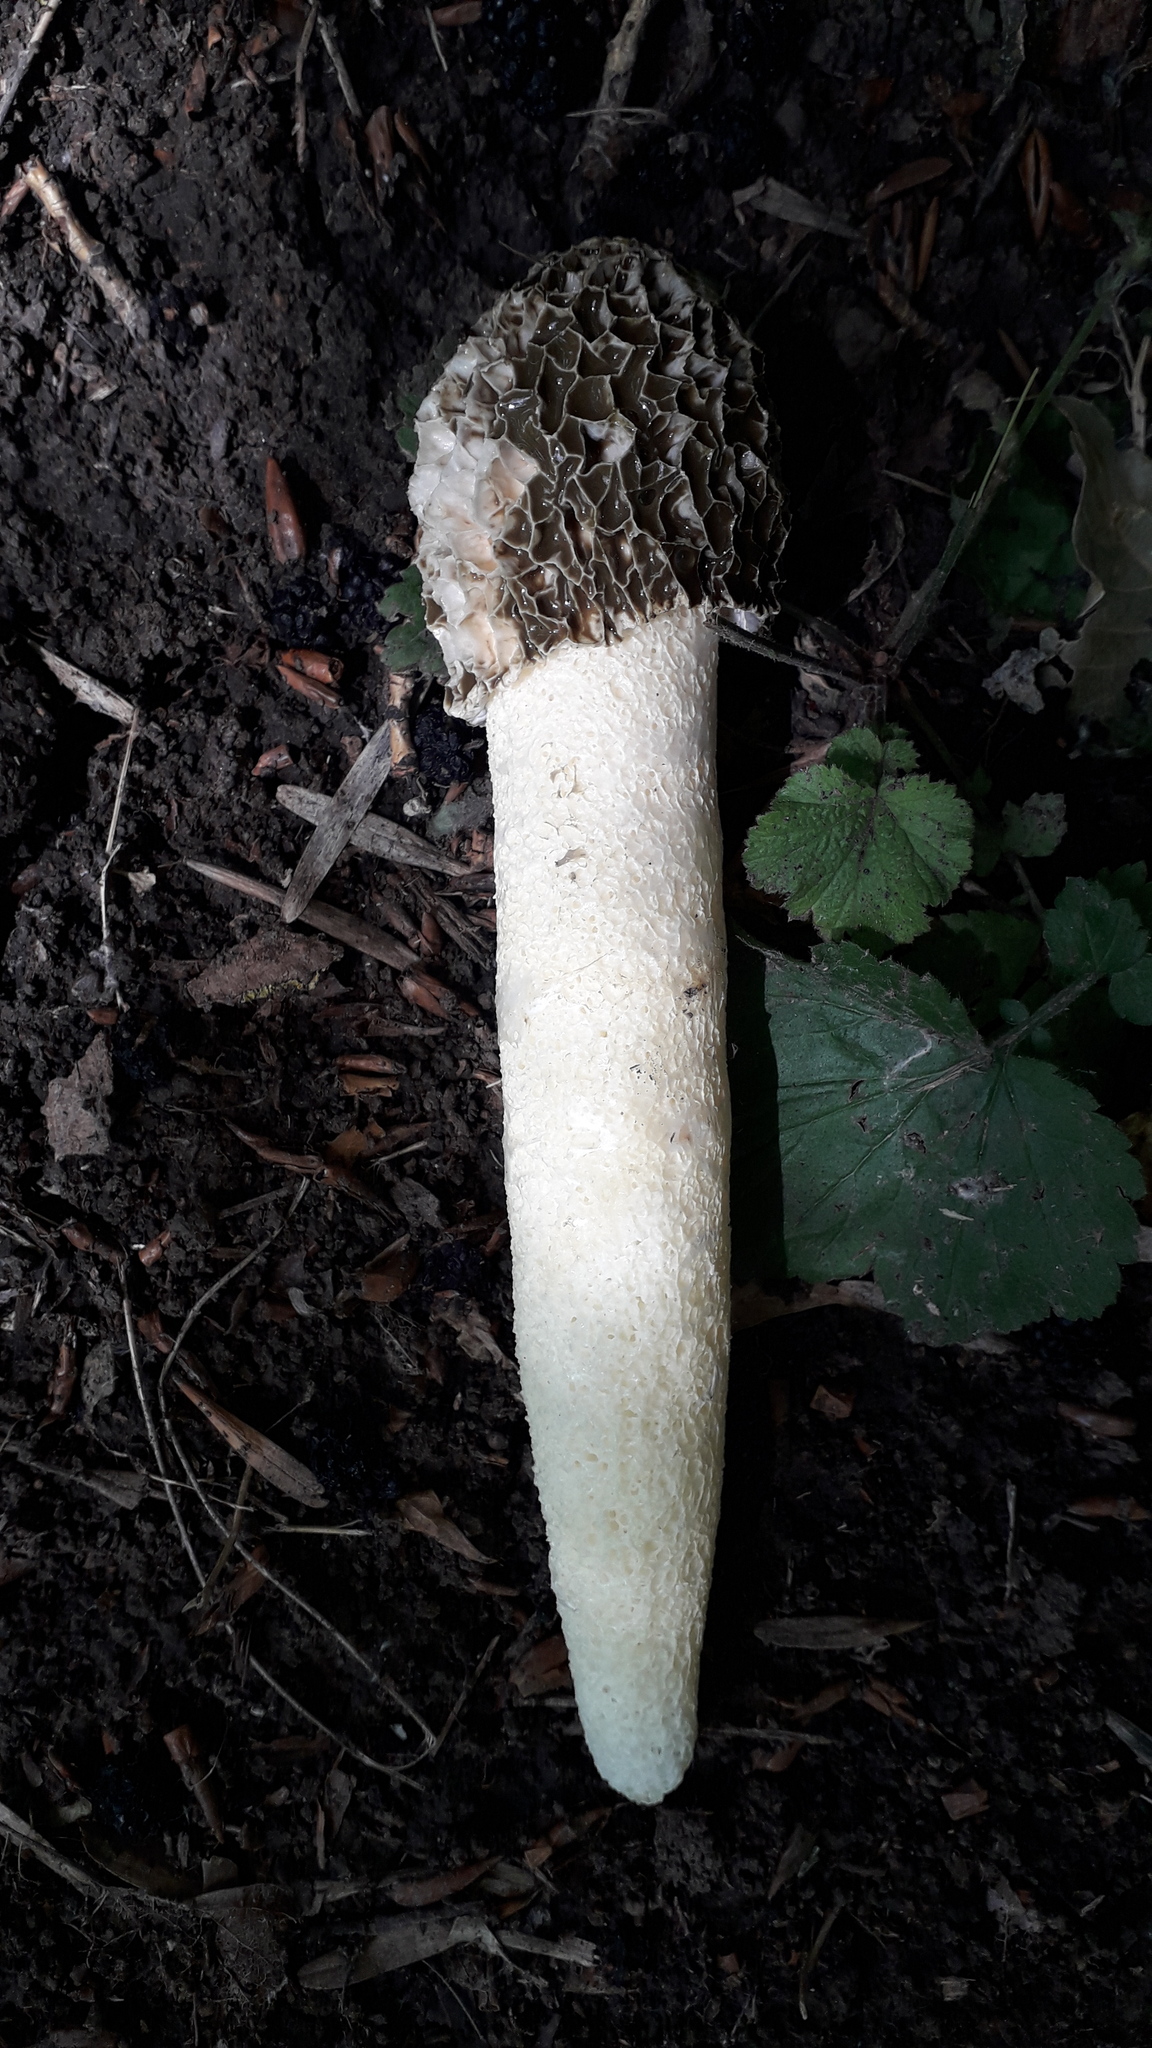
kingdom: Fungi
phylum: Basidiomycota
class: Agaricomycetes
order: Phallales
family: Phallaceae
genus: Phallus
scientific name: Phallus hadriani
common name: Sand stinkhorn
